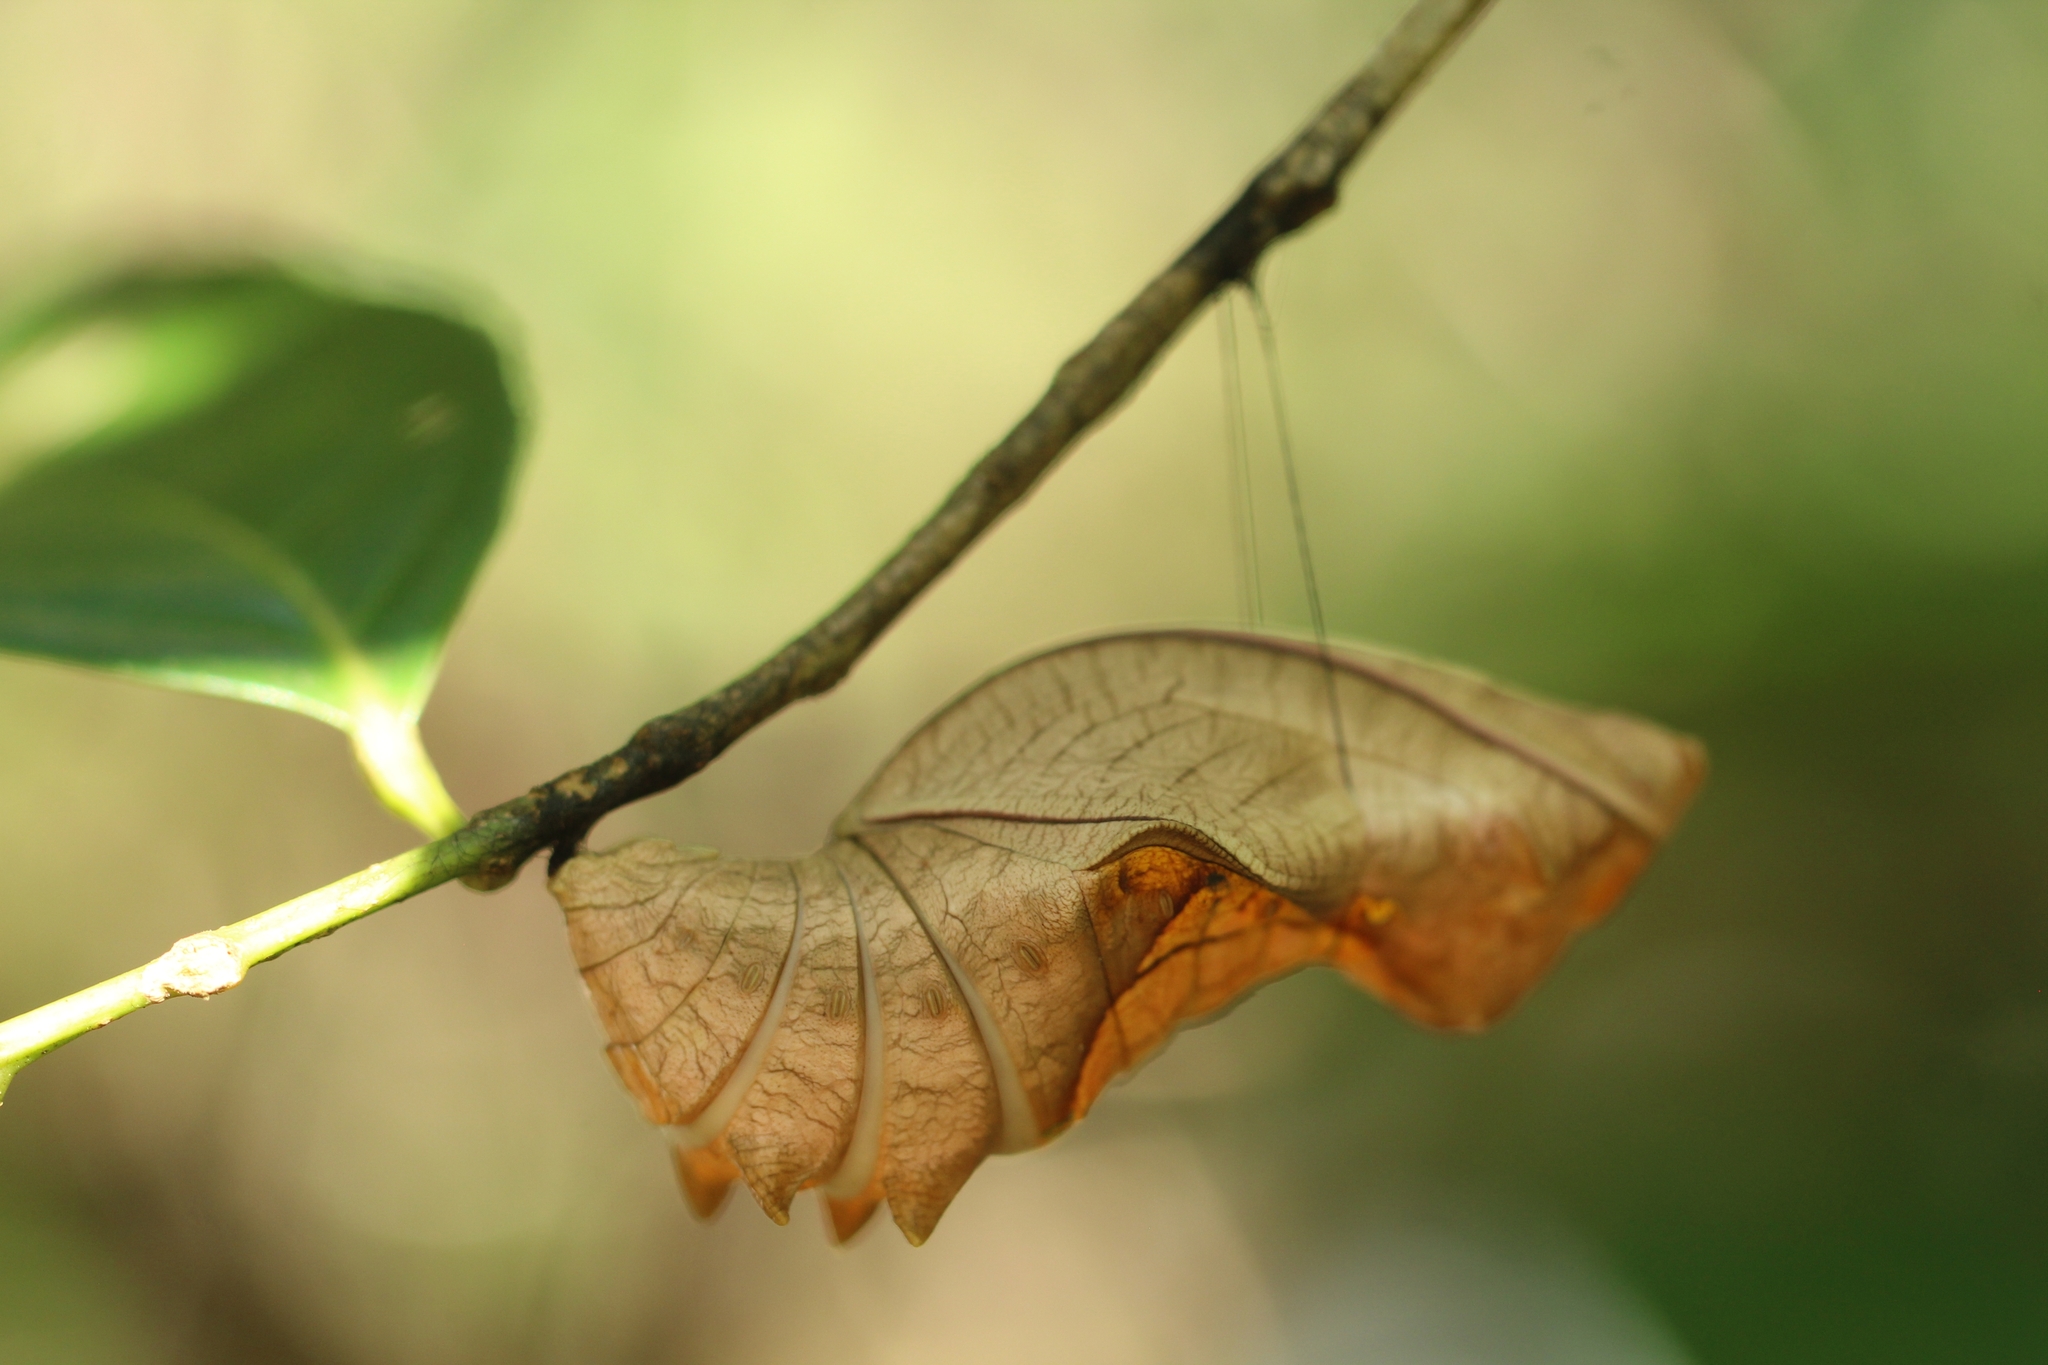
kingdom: Animalia
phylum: Arthropoda
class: Insecta
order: Lepidoptera
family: Papilionidae
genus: Troides
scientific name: Troides minos
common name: Malabar birdwing
